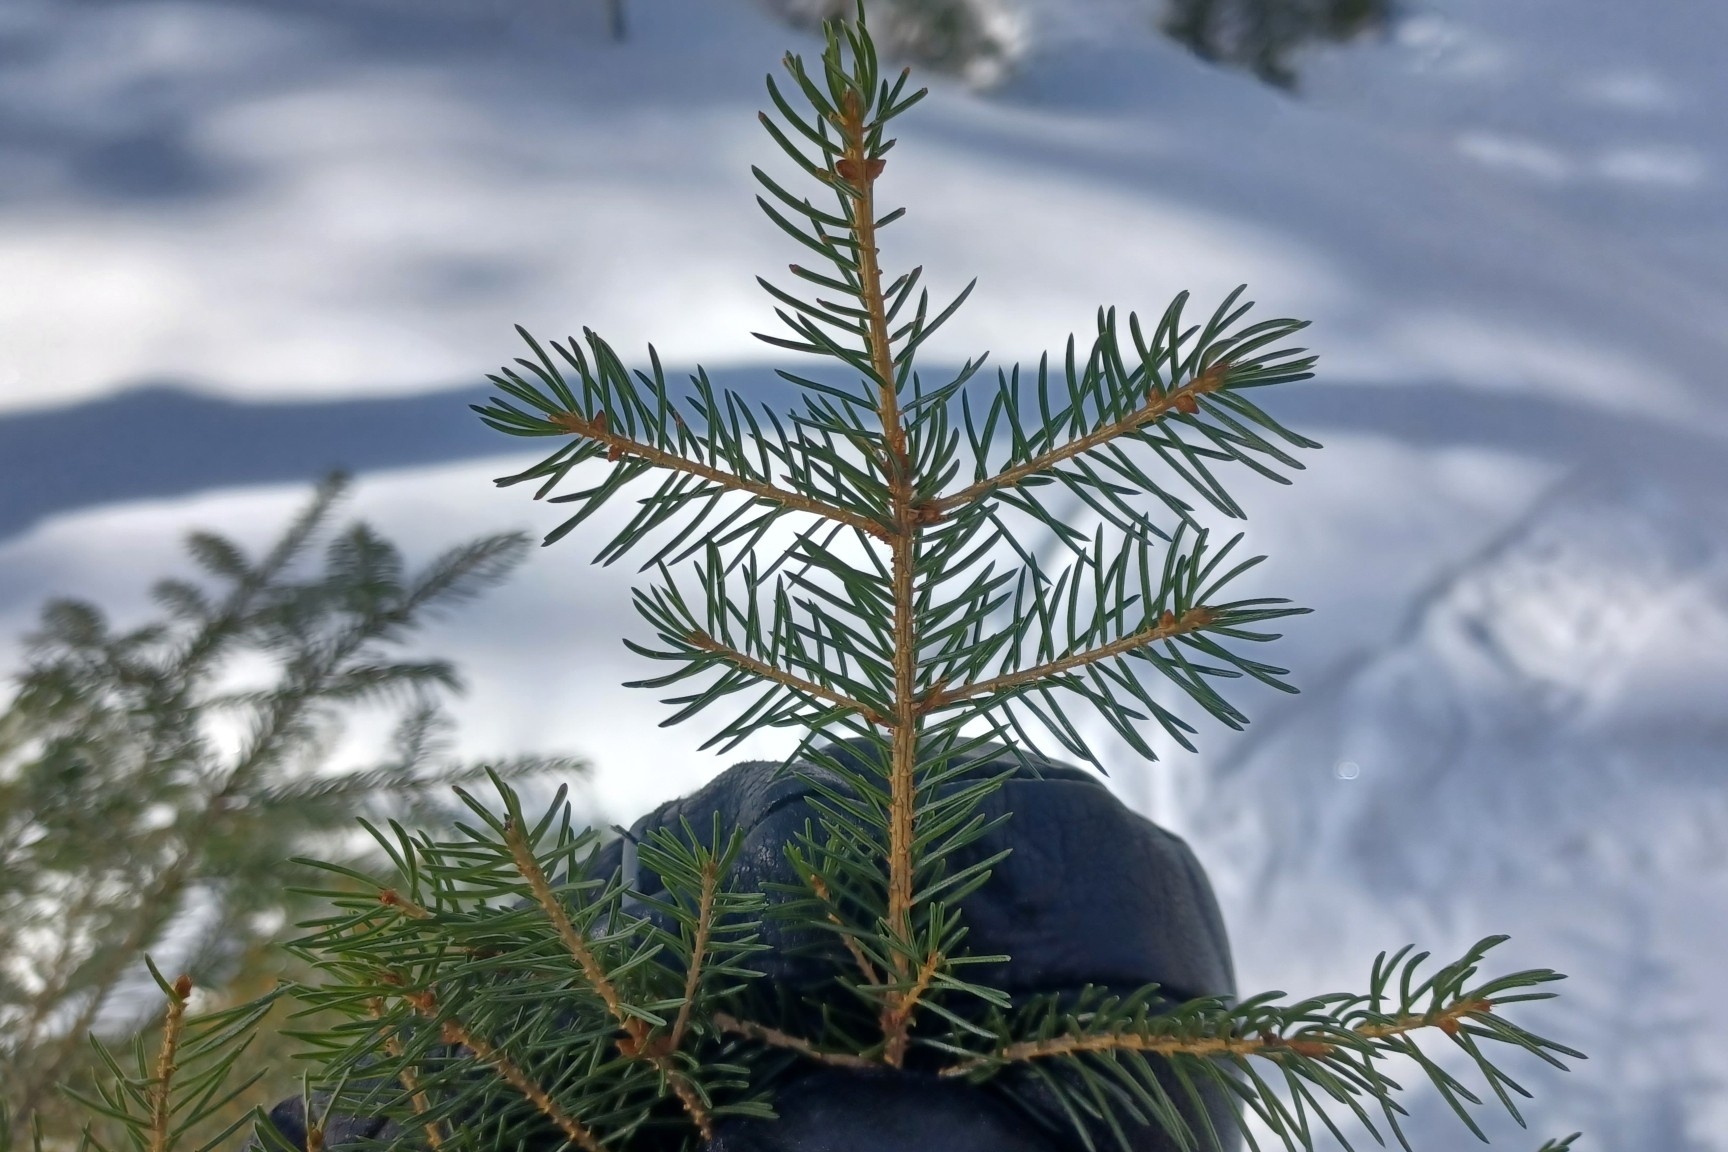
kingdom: Plantae
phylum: Tracheophyta
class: Pinopsida
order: Pinales
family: Pinaceae
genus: Picea
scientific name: Picea rubens
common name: Red spruce
